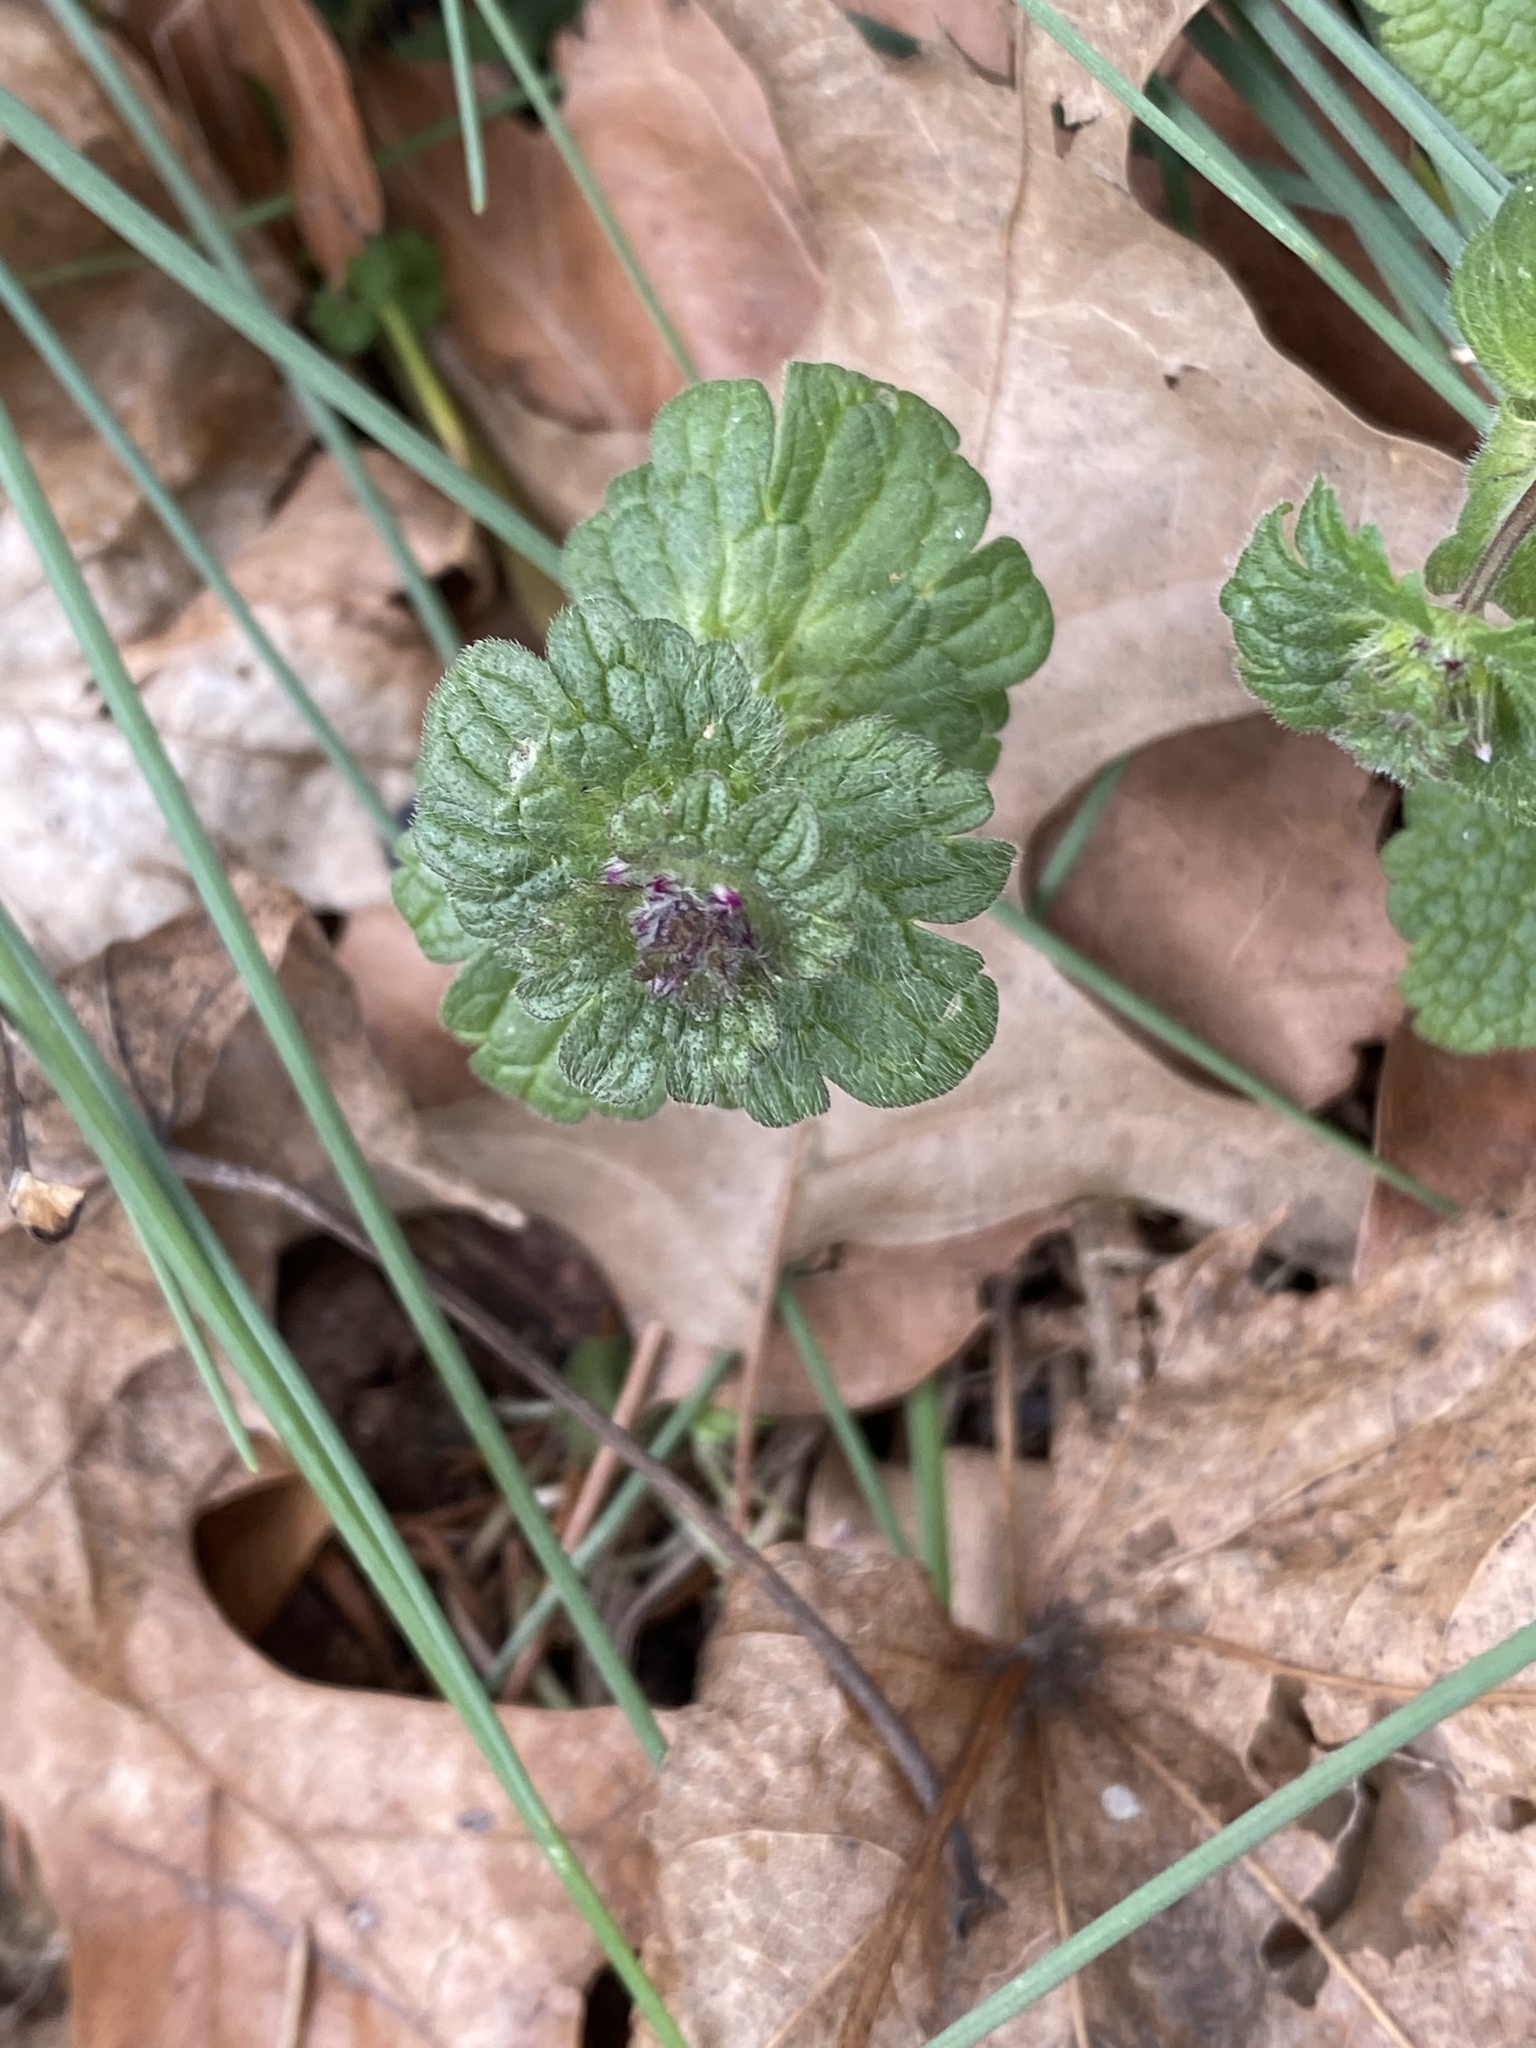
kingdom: Plantae
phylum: Tracheophyta
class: Magnoliopsida
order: Lamiales
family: Lamiaceae
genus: Lamium
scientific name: Lamium amplexicaule
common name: Henbit dead-nettle
